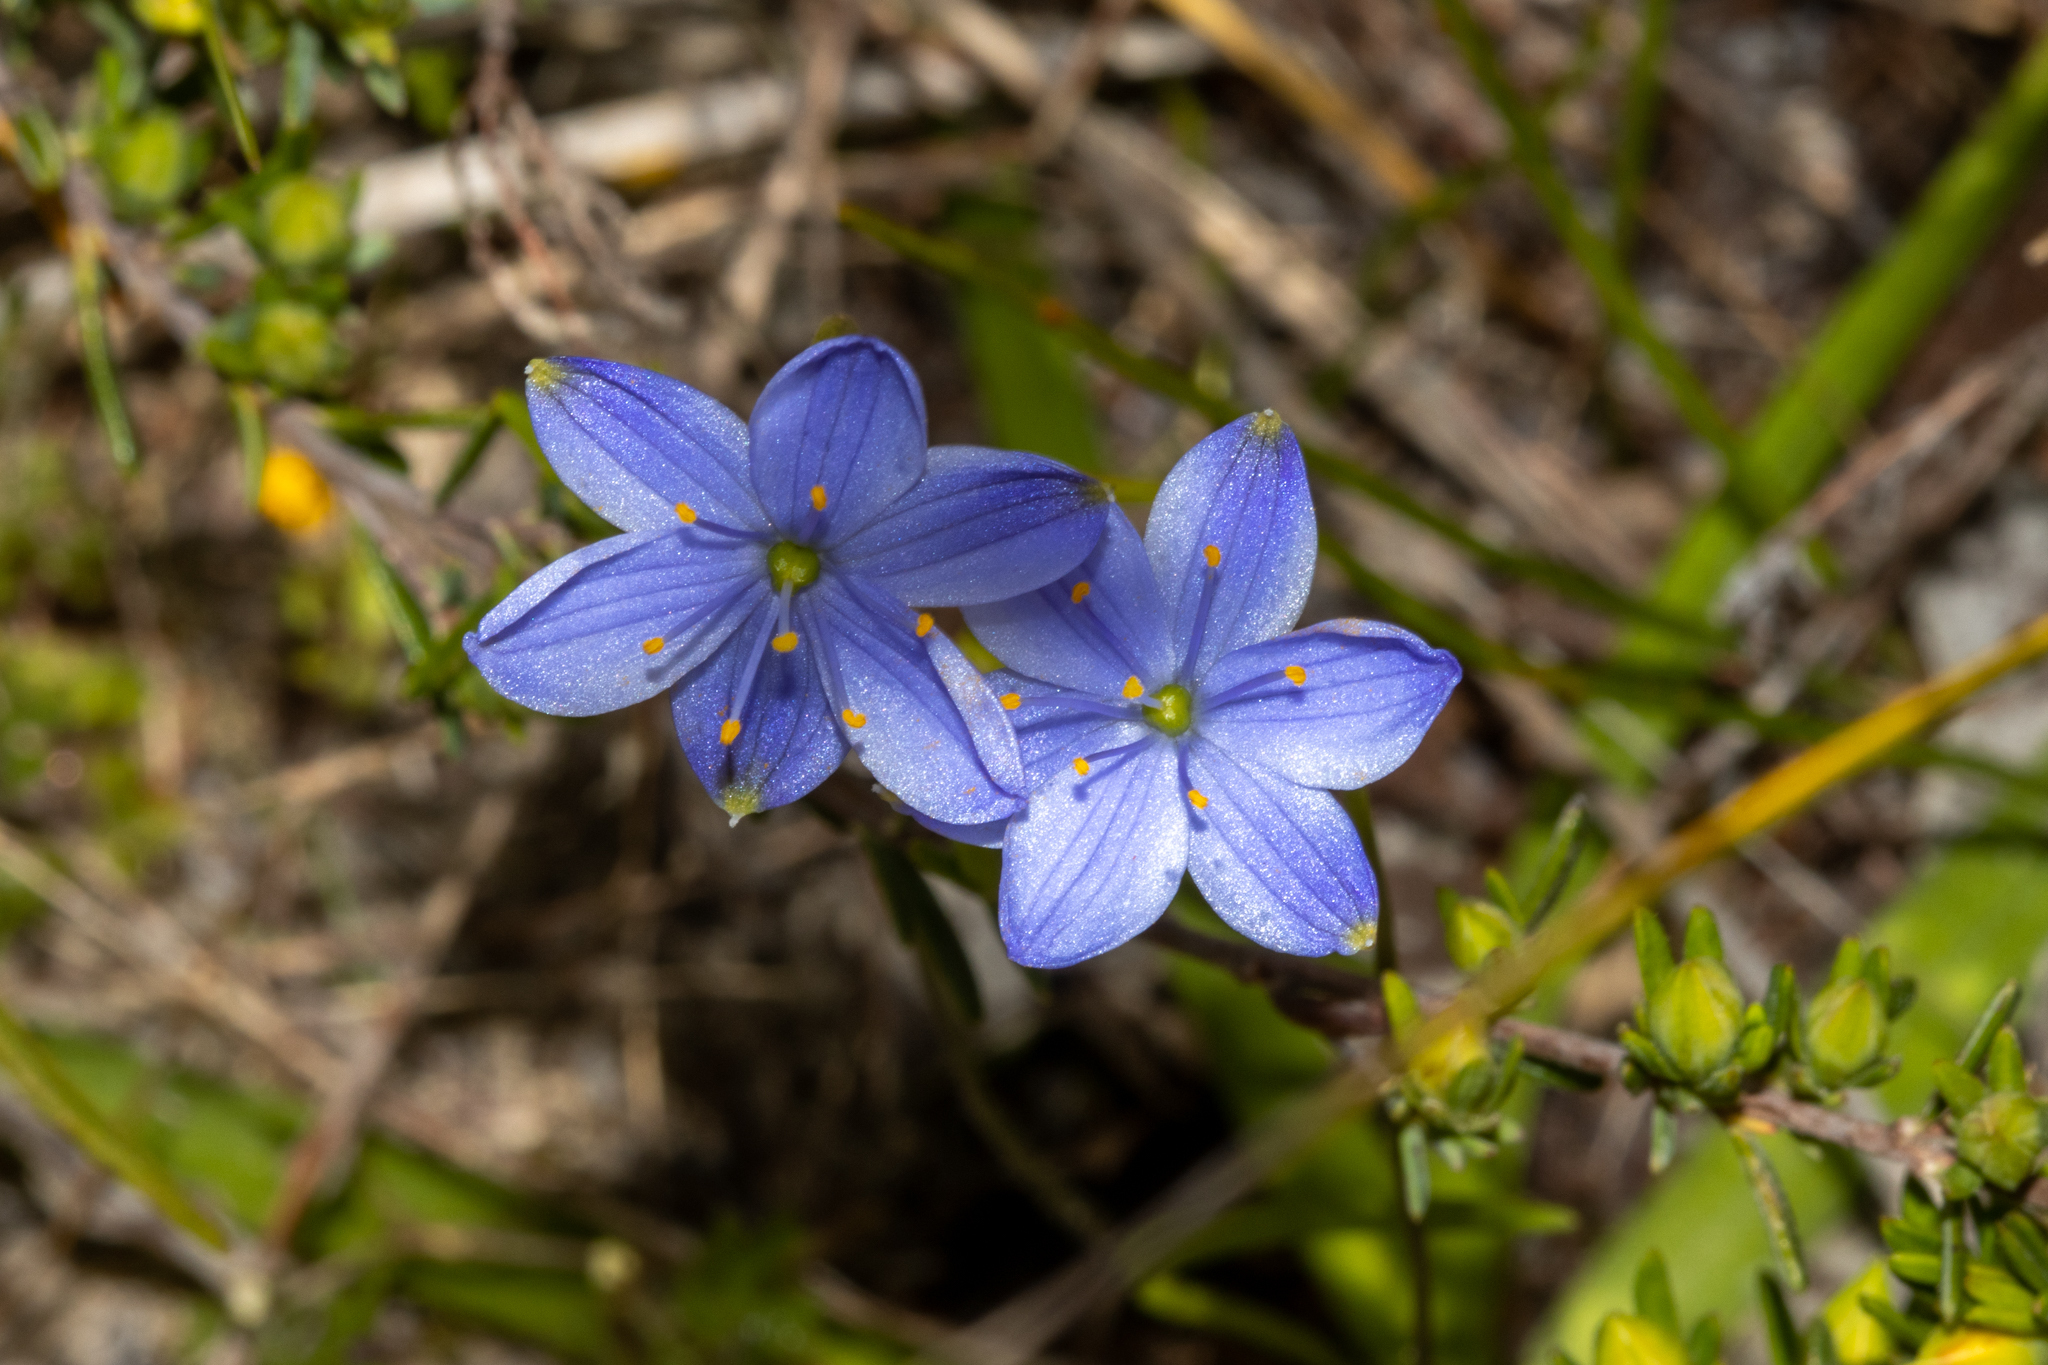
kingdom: Plantae
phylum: Tracheophyta
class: Liliopsida
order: Asparagales
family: Asphodelaceae
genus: Chamaescilla
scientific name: Chamaescilla corymbosa
